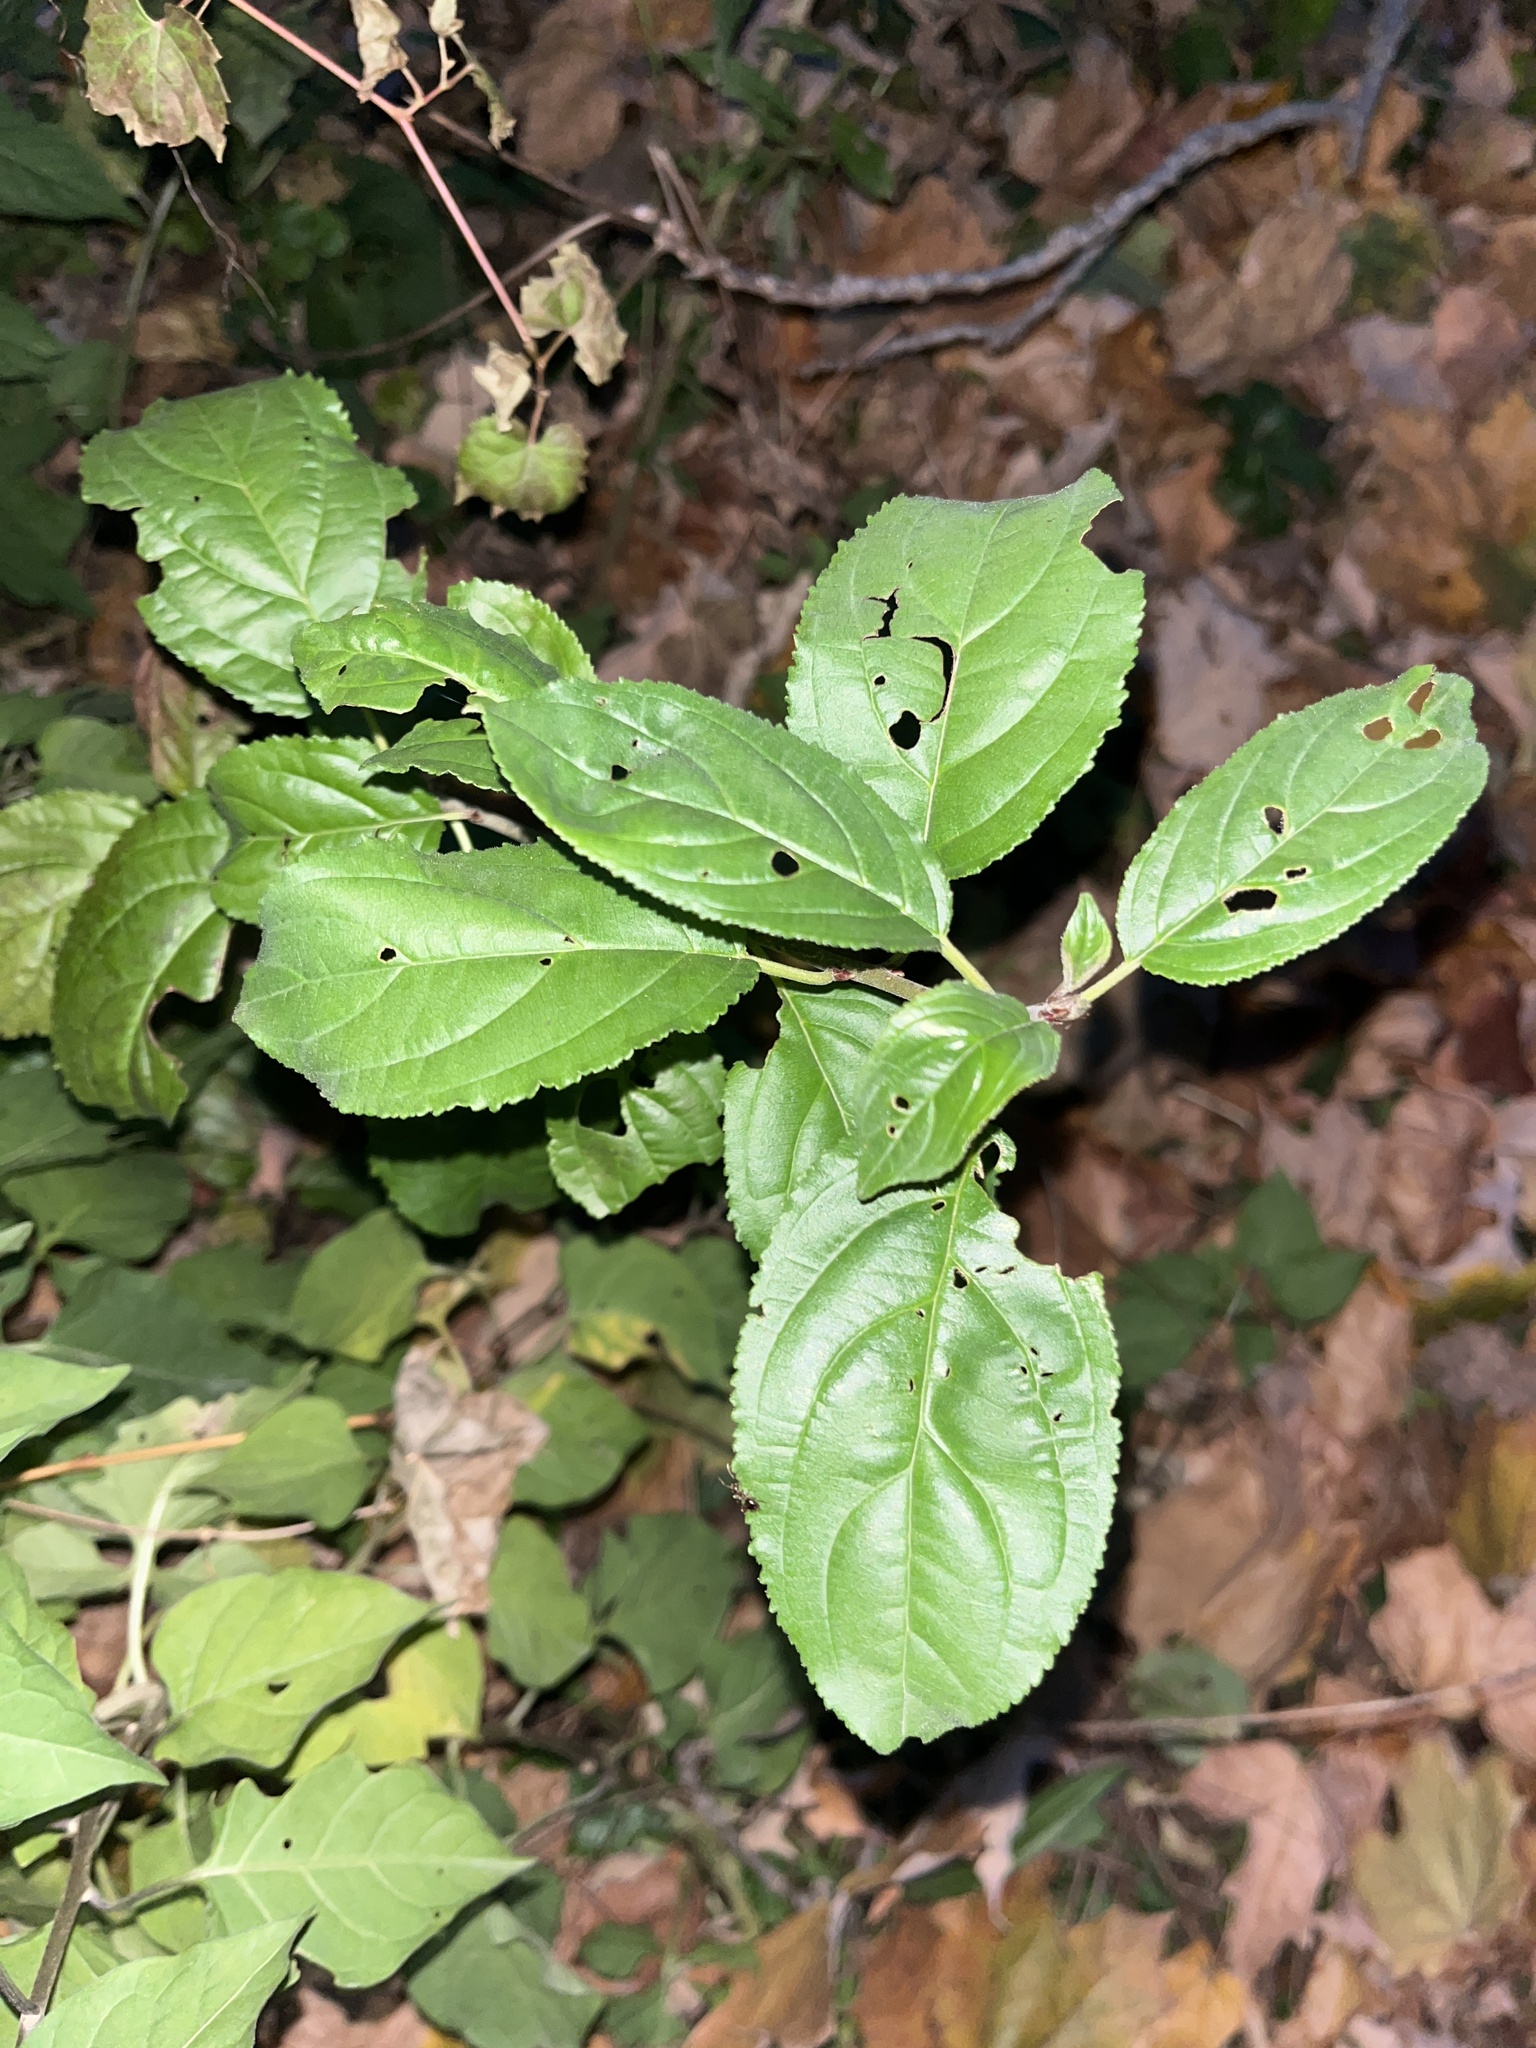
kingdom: Plantae
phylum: Tracheophyta
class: Magnoliopsida
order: Rosales
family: Rhamnaceae
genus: Rhamnus
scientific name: Rhamnus cathartica
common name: Common buckthorn
